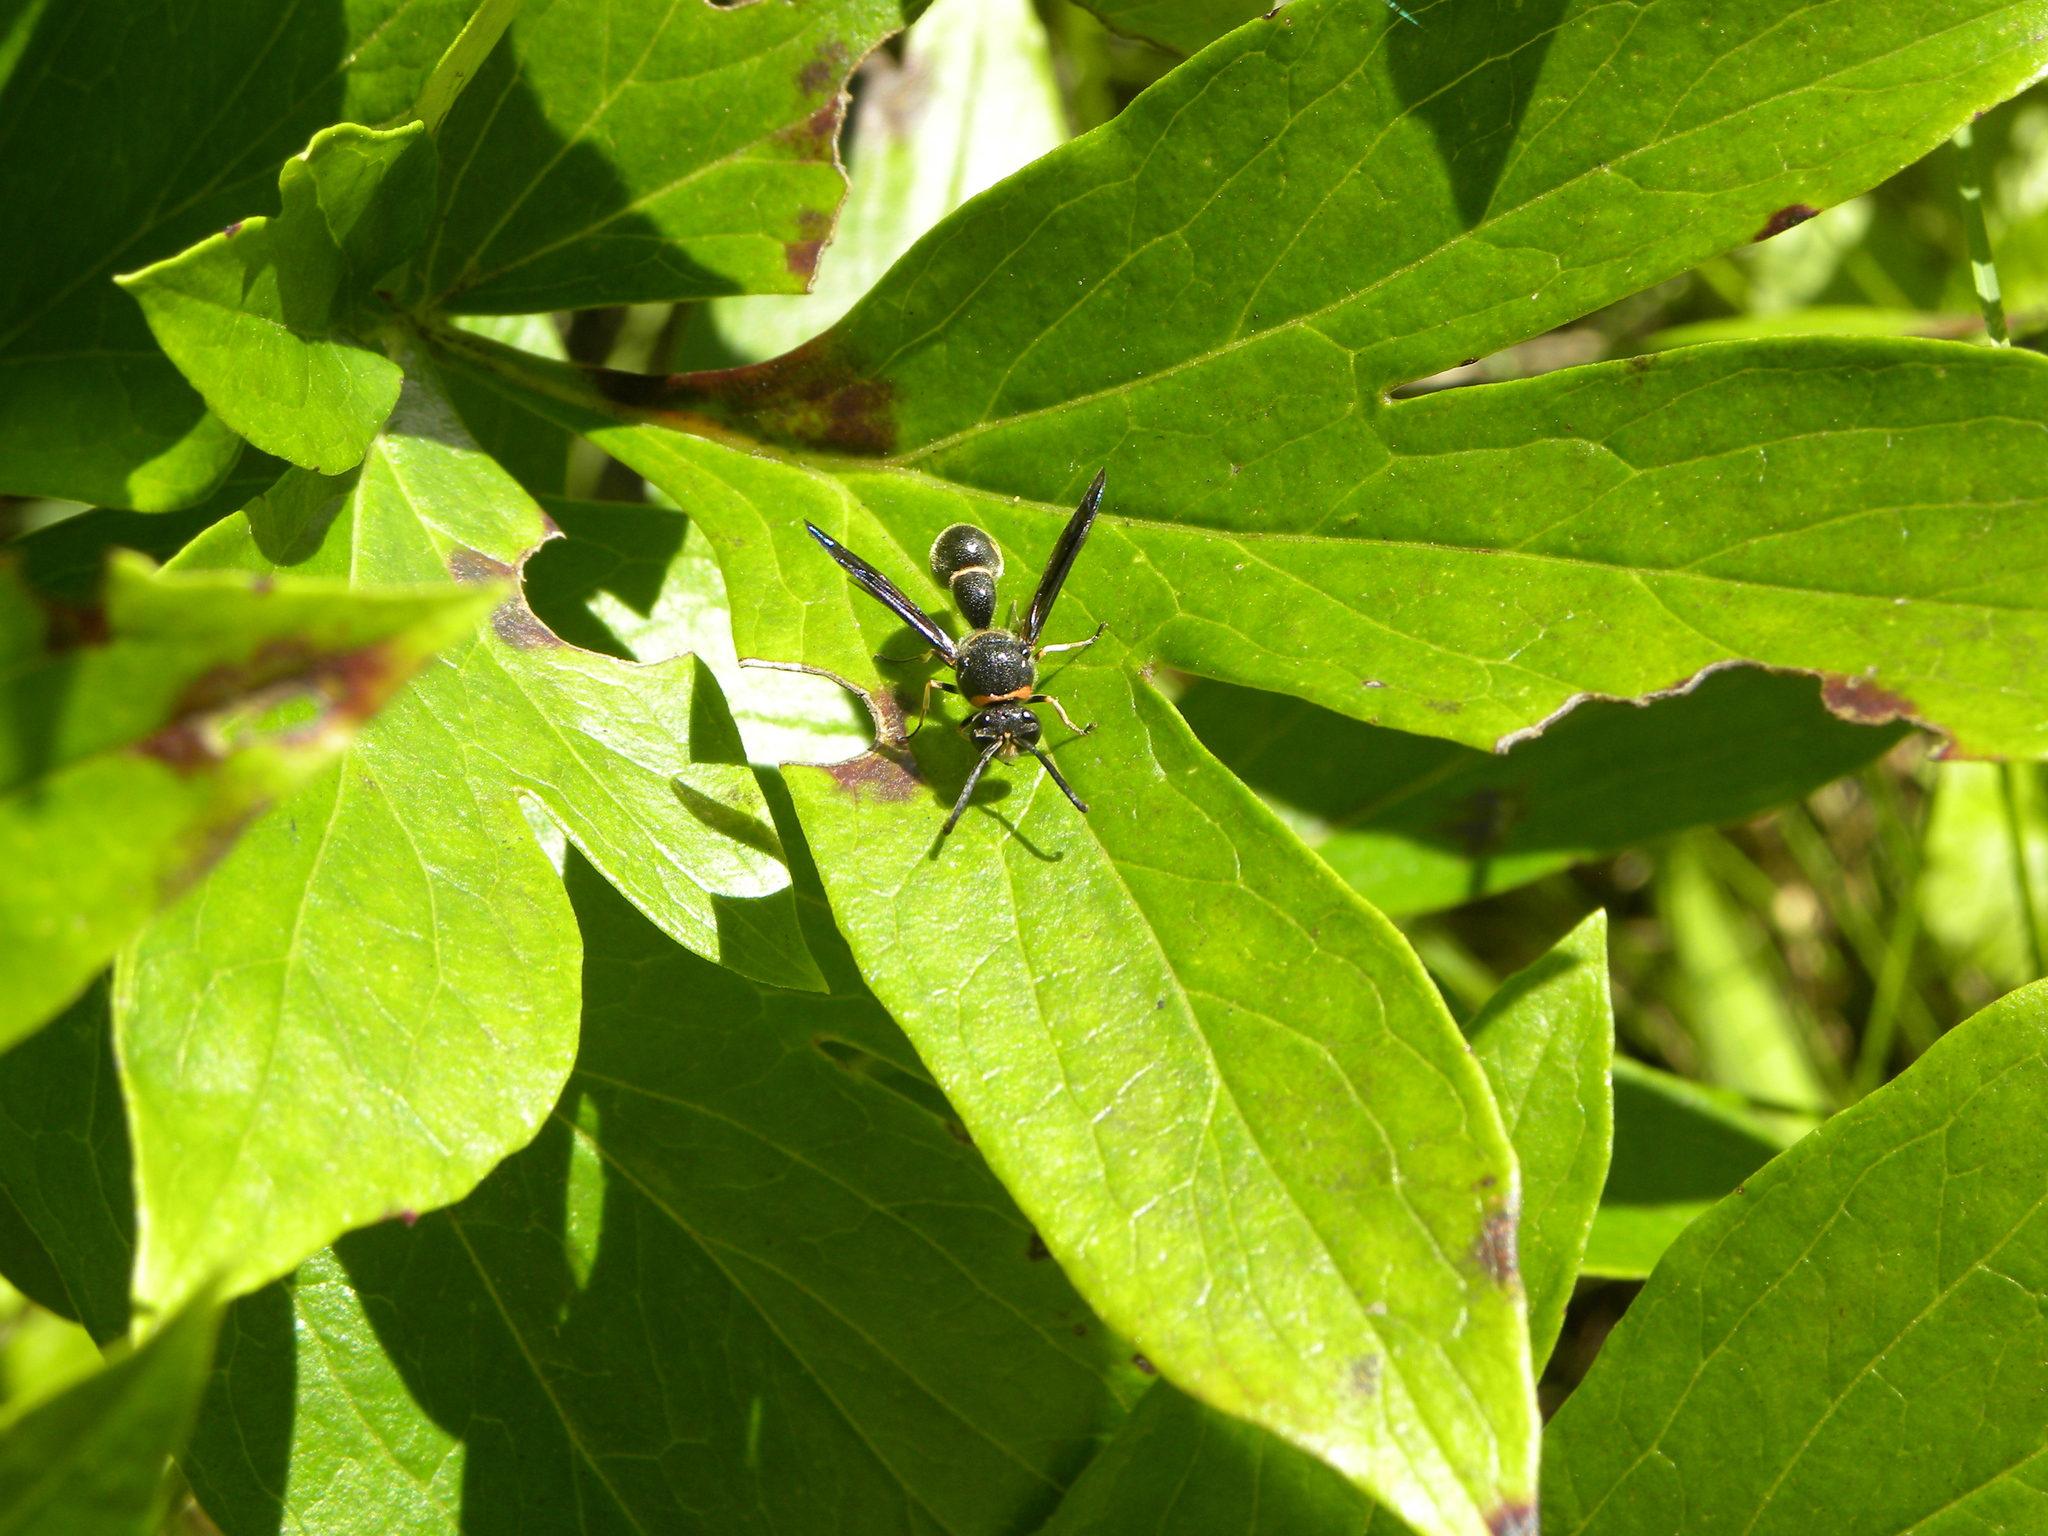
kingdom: Animalia
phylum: Arthropoda
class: Insecta
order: Hymenoptera
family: Vespidae
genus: Eumenes
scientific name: Eumenes fraternus
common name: Fraternal potter wasp
